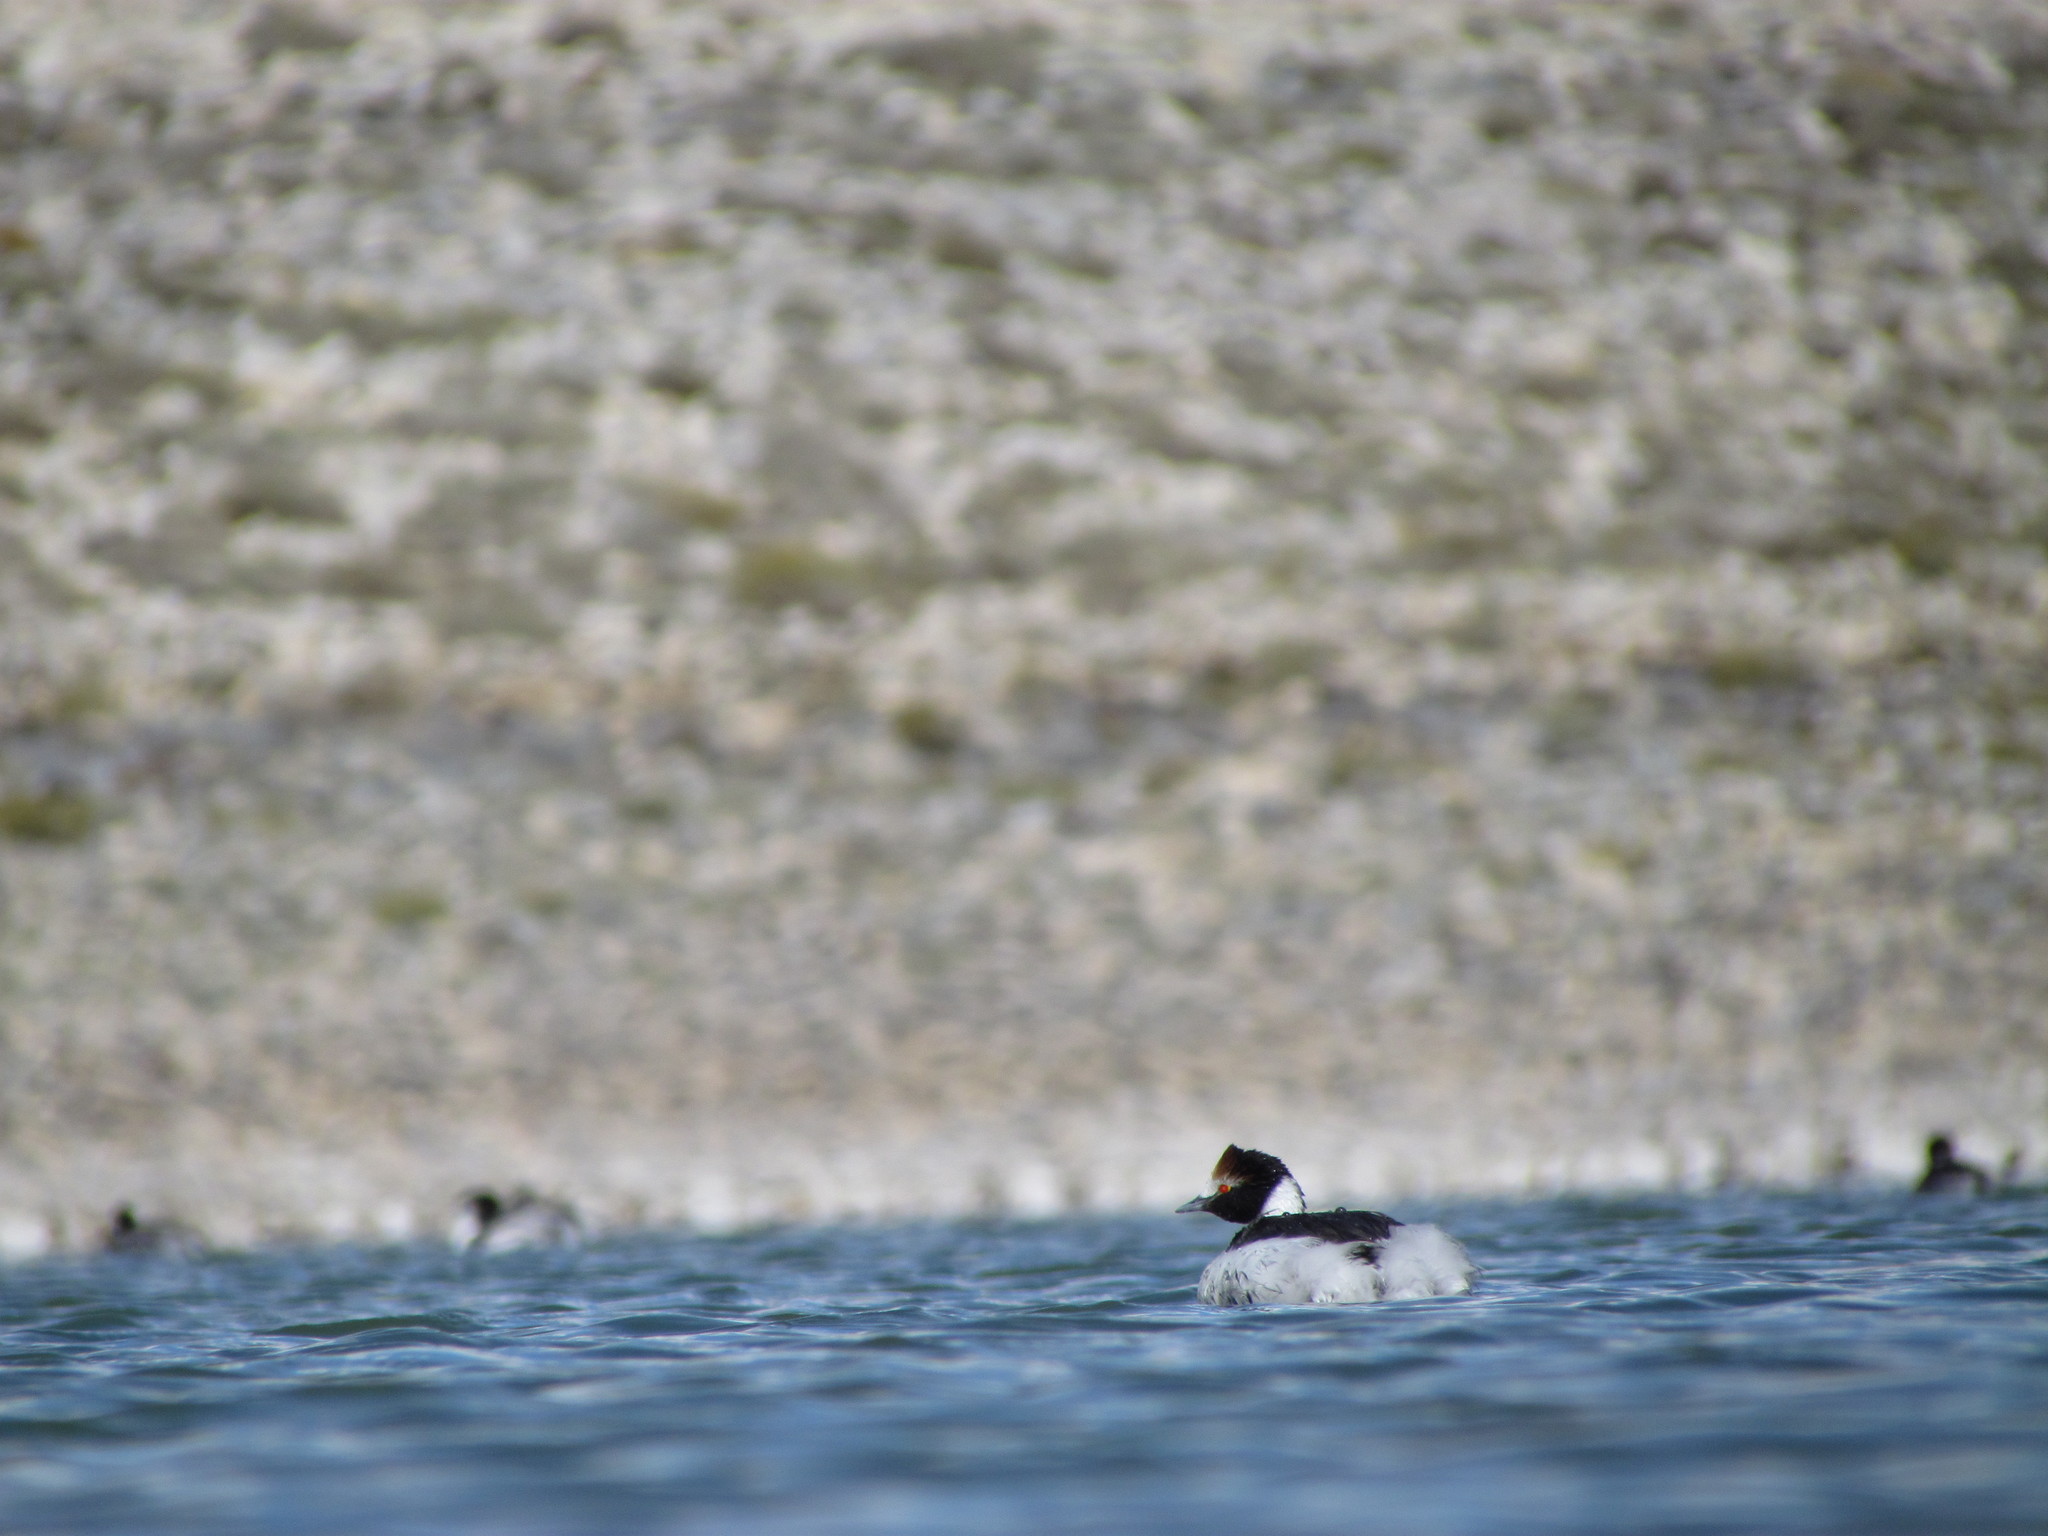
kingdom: Animalia
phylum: Chordata
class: Aves
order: Podicipediformes
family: Podicipedidae
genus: Podiceps
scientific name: Podiceps gallardoi
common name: Hooded grebe
